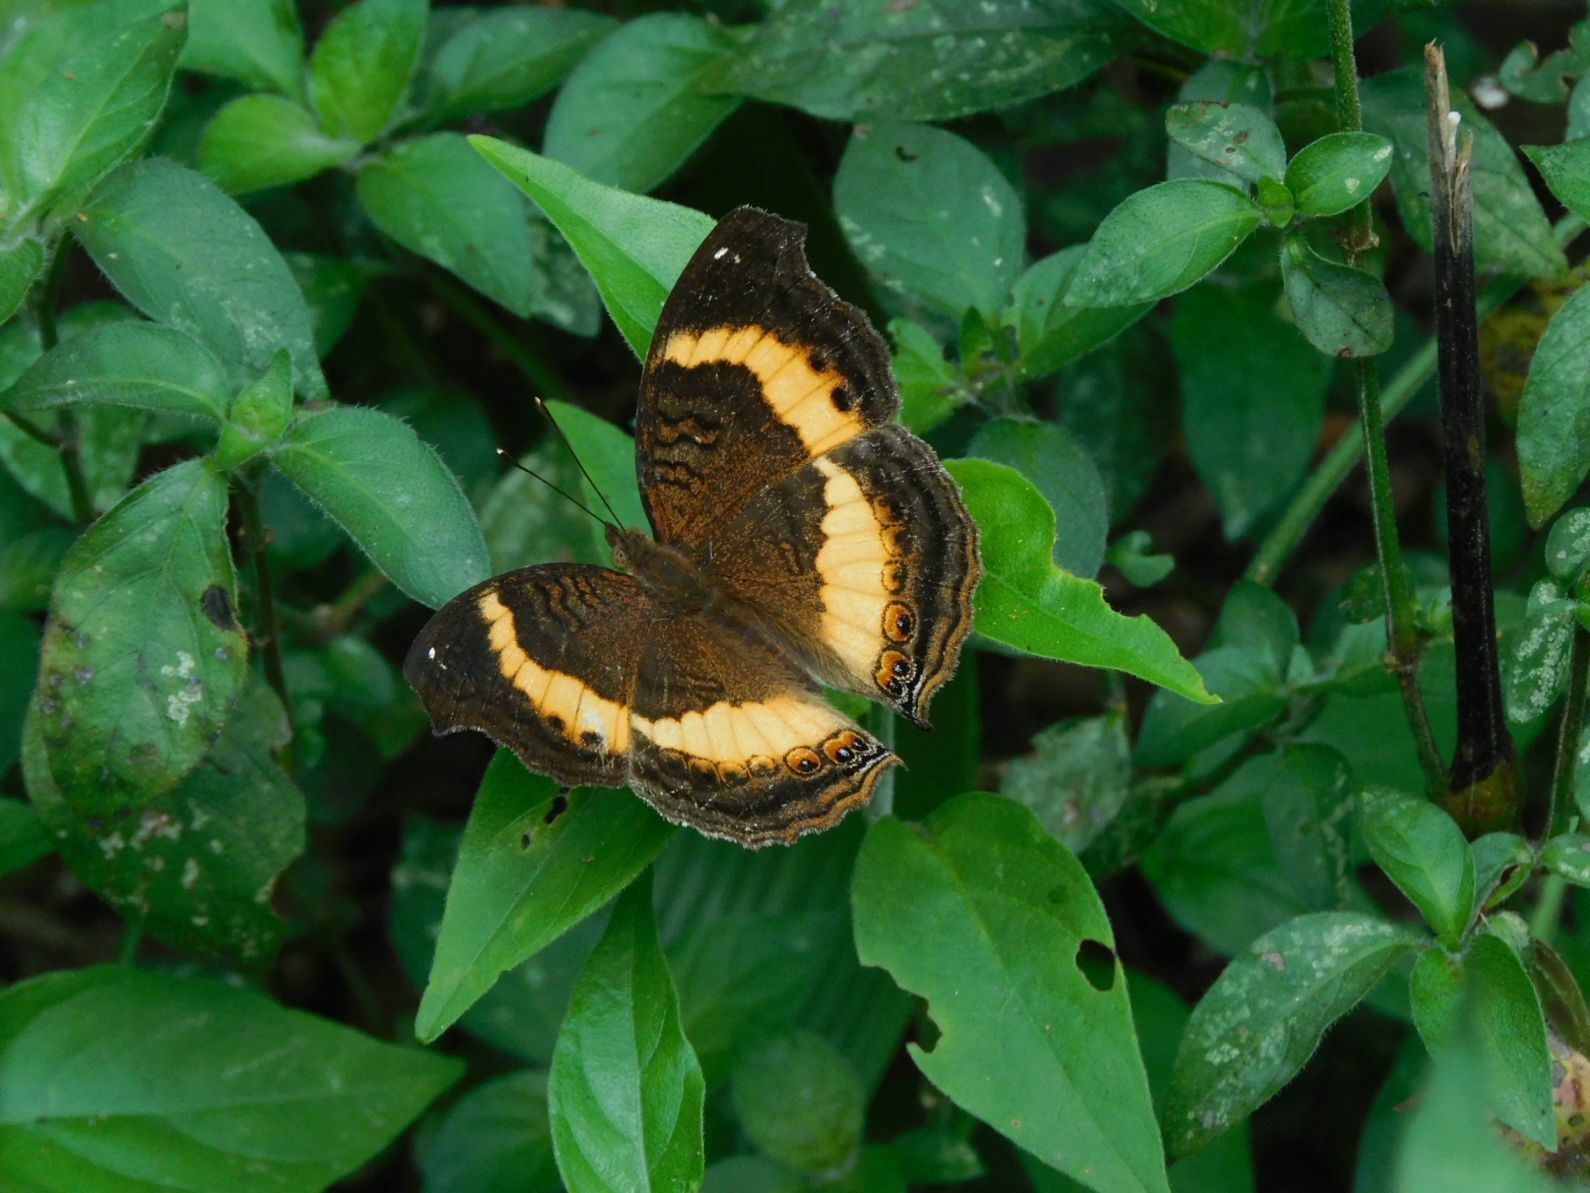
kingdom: Animalia
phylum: Arthropoda
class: Insecta
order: Lepidoptera
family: Nymphalidae
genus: Junonia
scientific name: Junonia terea
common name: Soldier pansy
